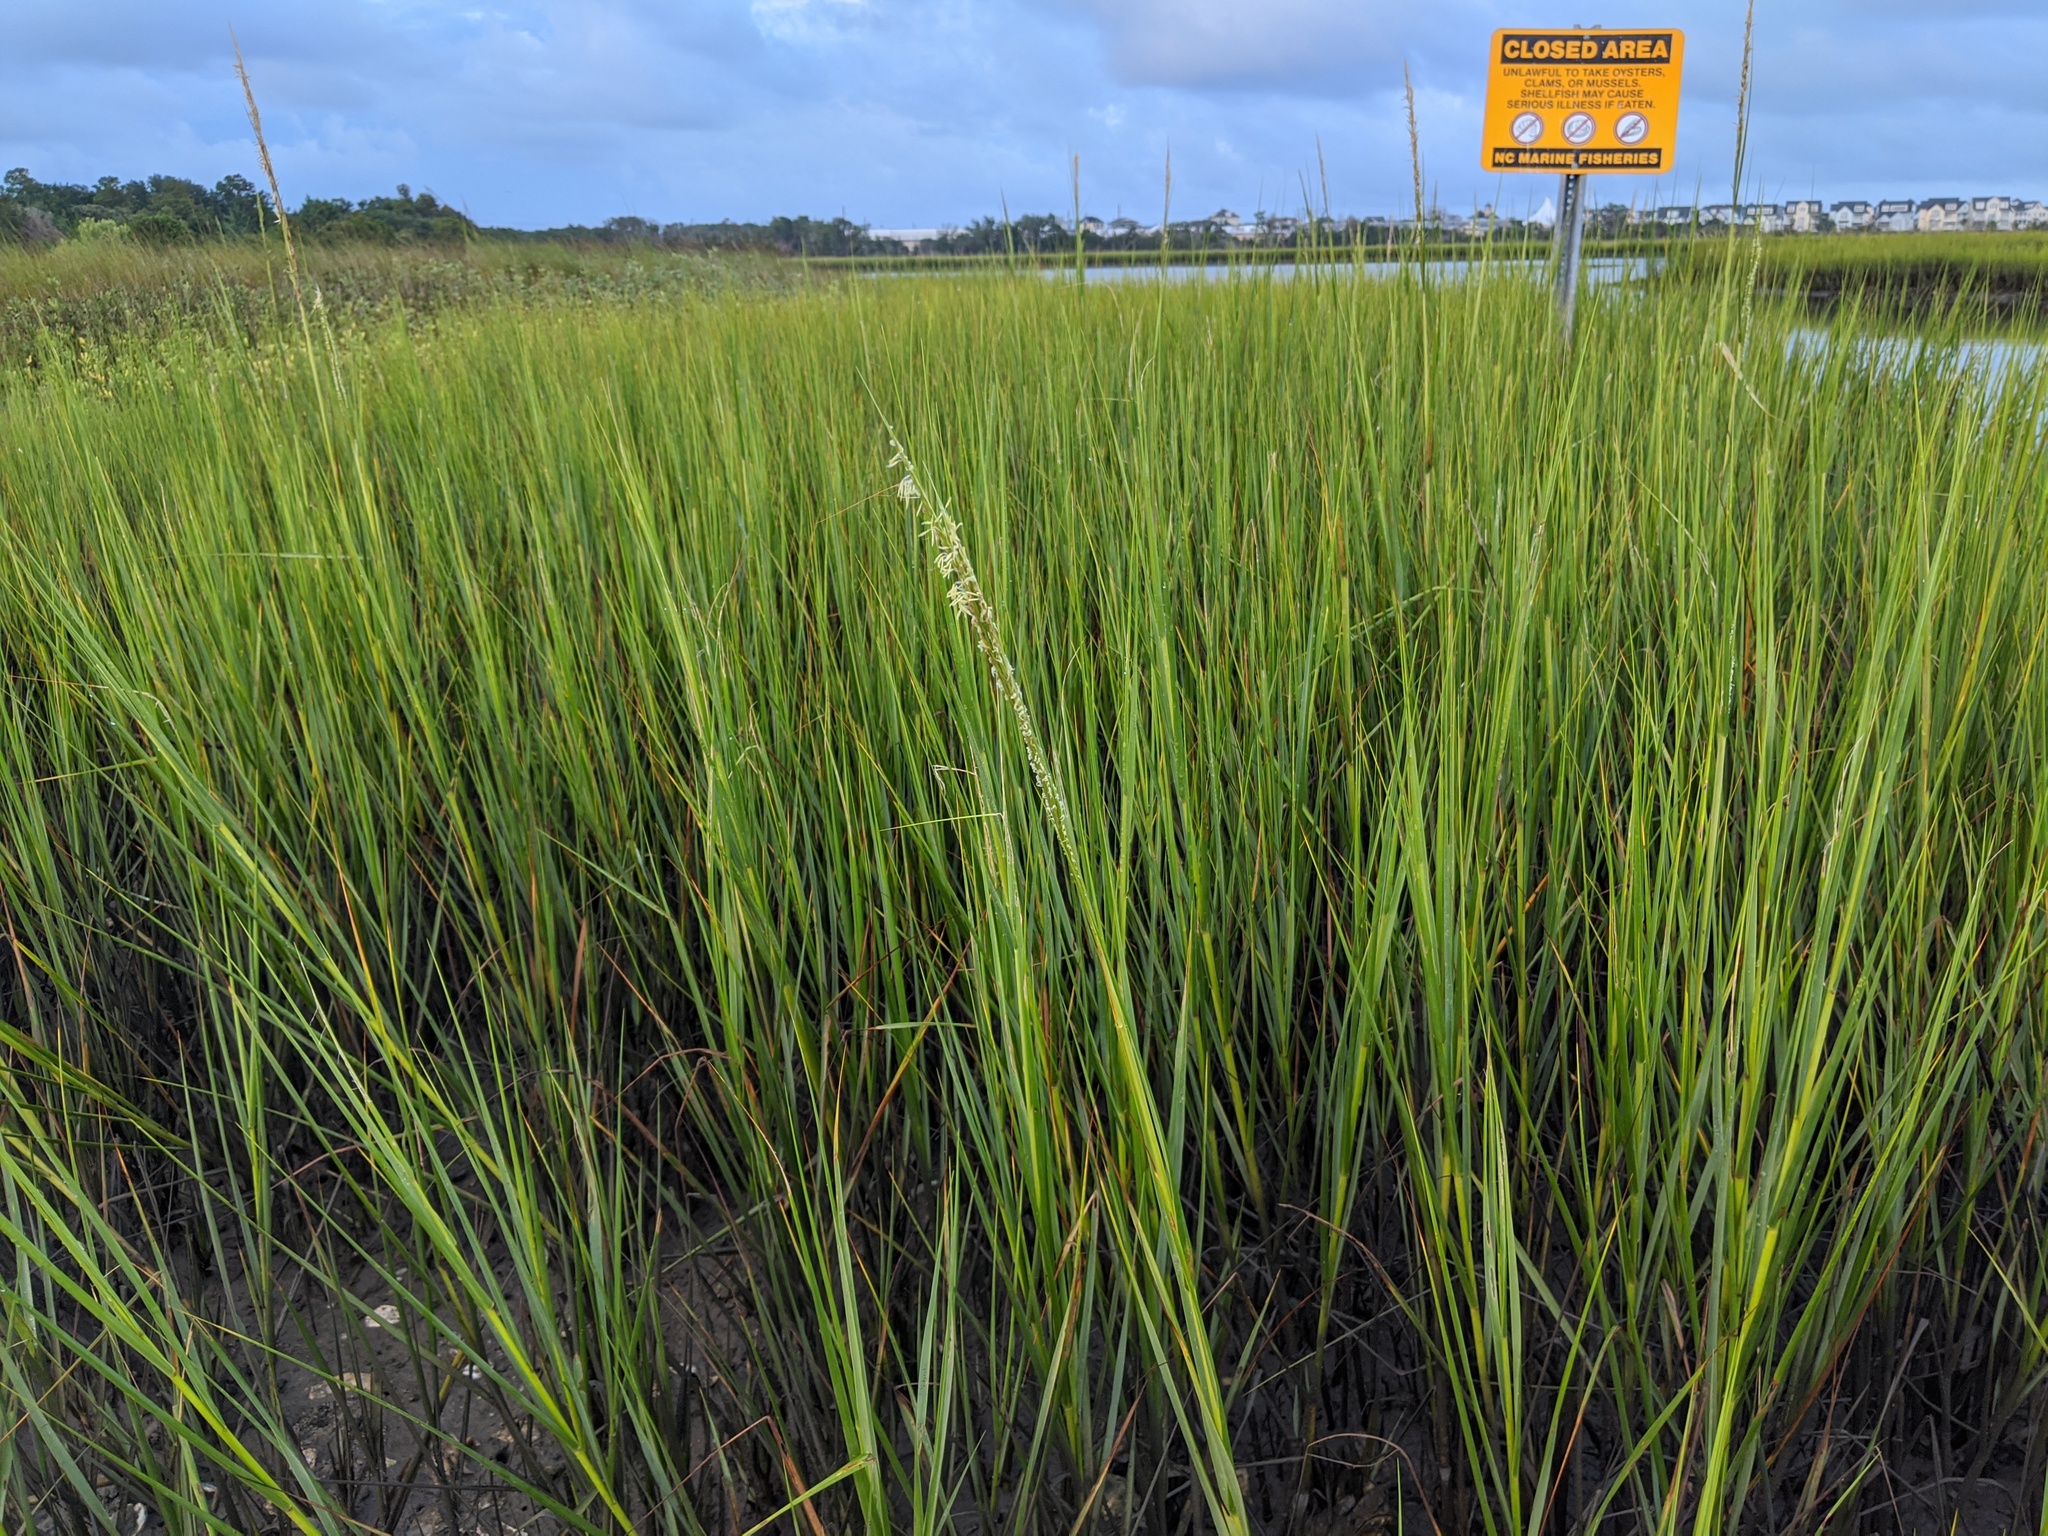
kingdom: Plantae
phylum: Tracheophyta
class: Liliopsida
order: Poales
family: Poaceae
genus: Sporobolus
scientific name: Sporobolus alterniflorus
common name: Atlantic cordgrass
